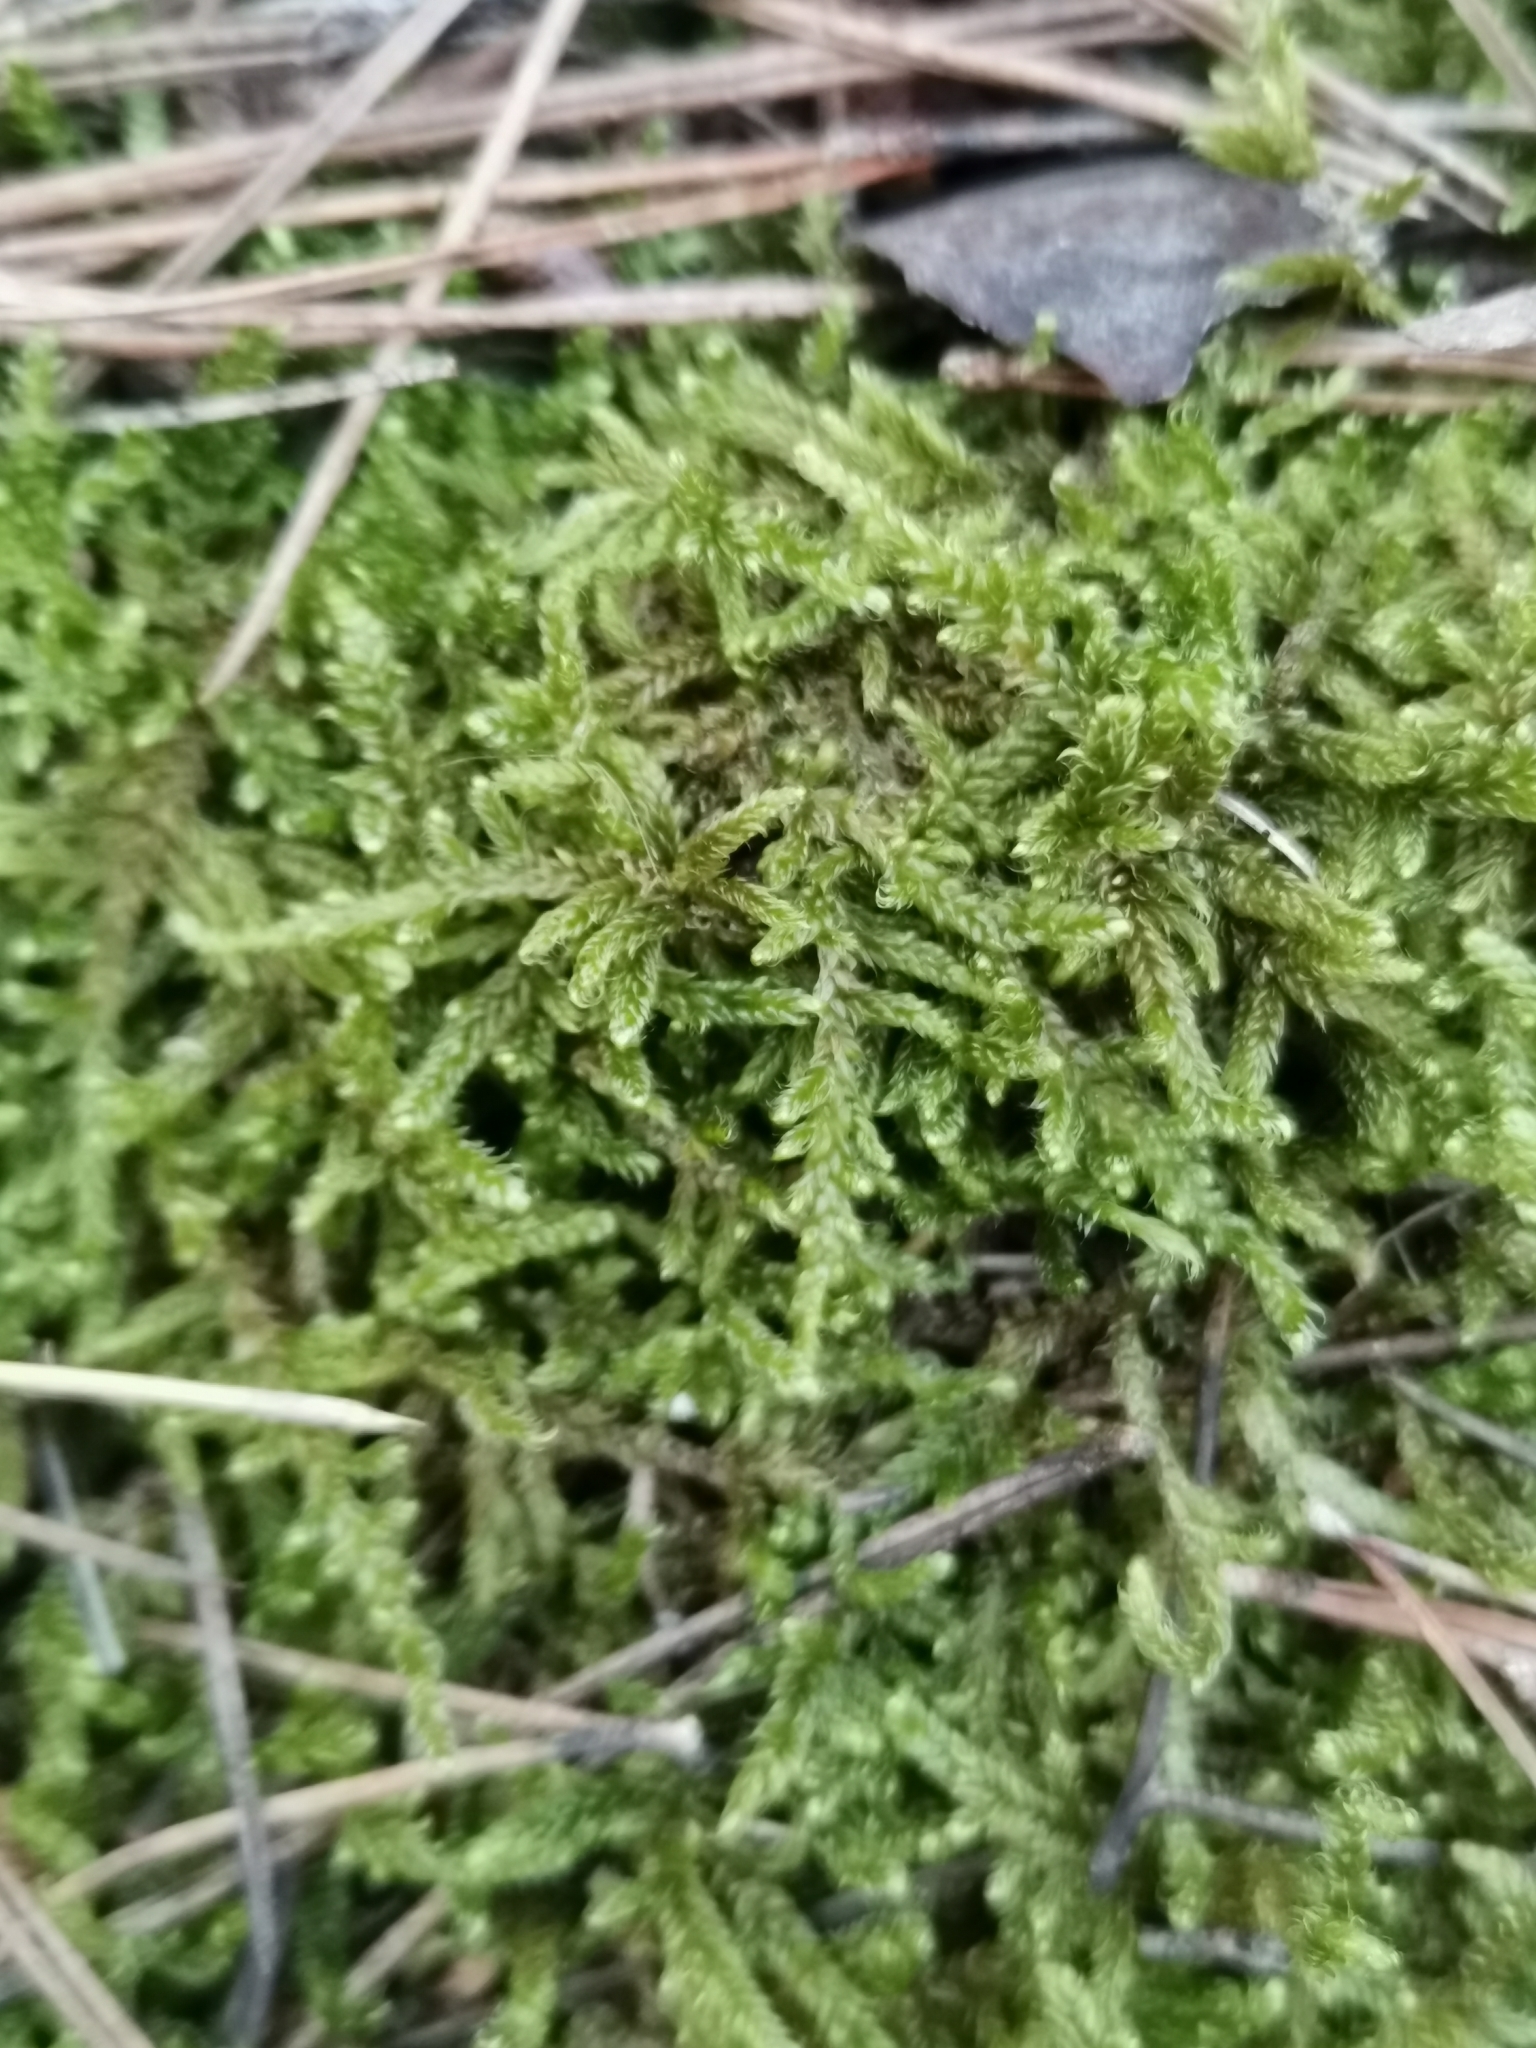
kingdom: Plantae
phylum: Bryophyta
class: Bryopsida
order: Hypnales
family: Hypnaceae
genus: Hypnum
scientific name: Hypnum cupressiforme
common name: Cypress-leaved plait-moss
